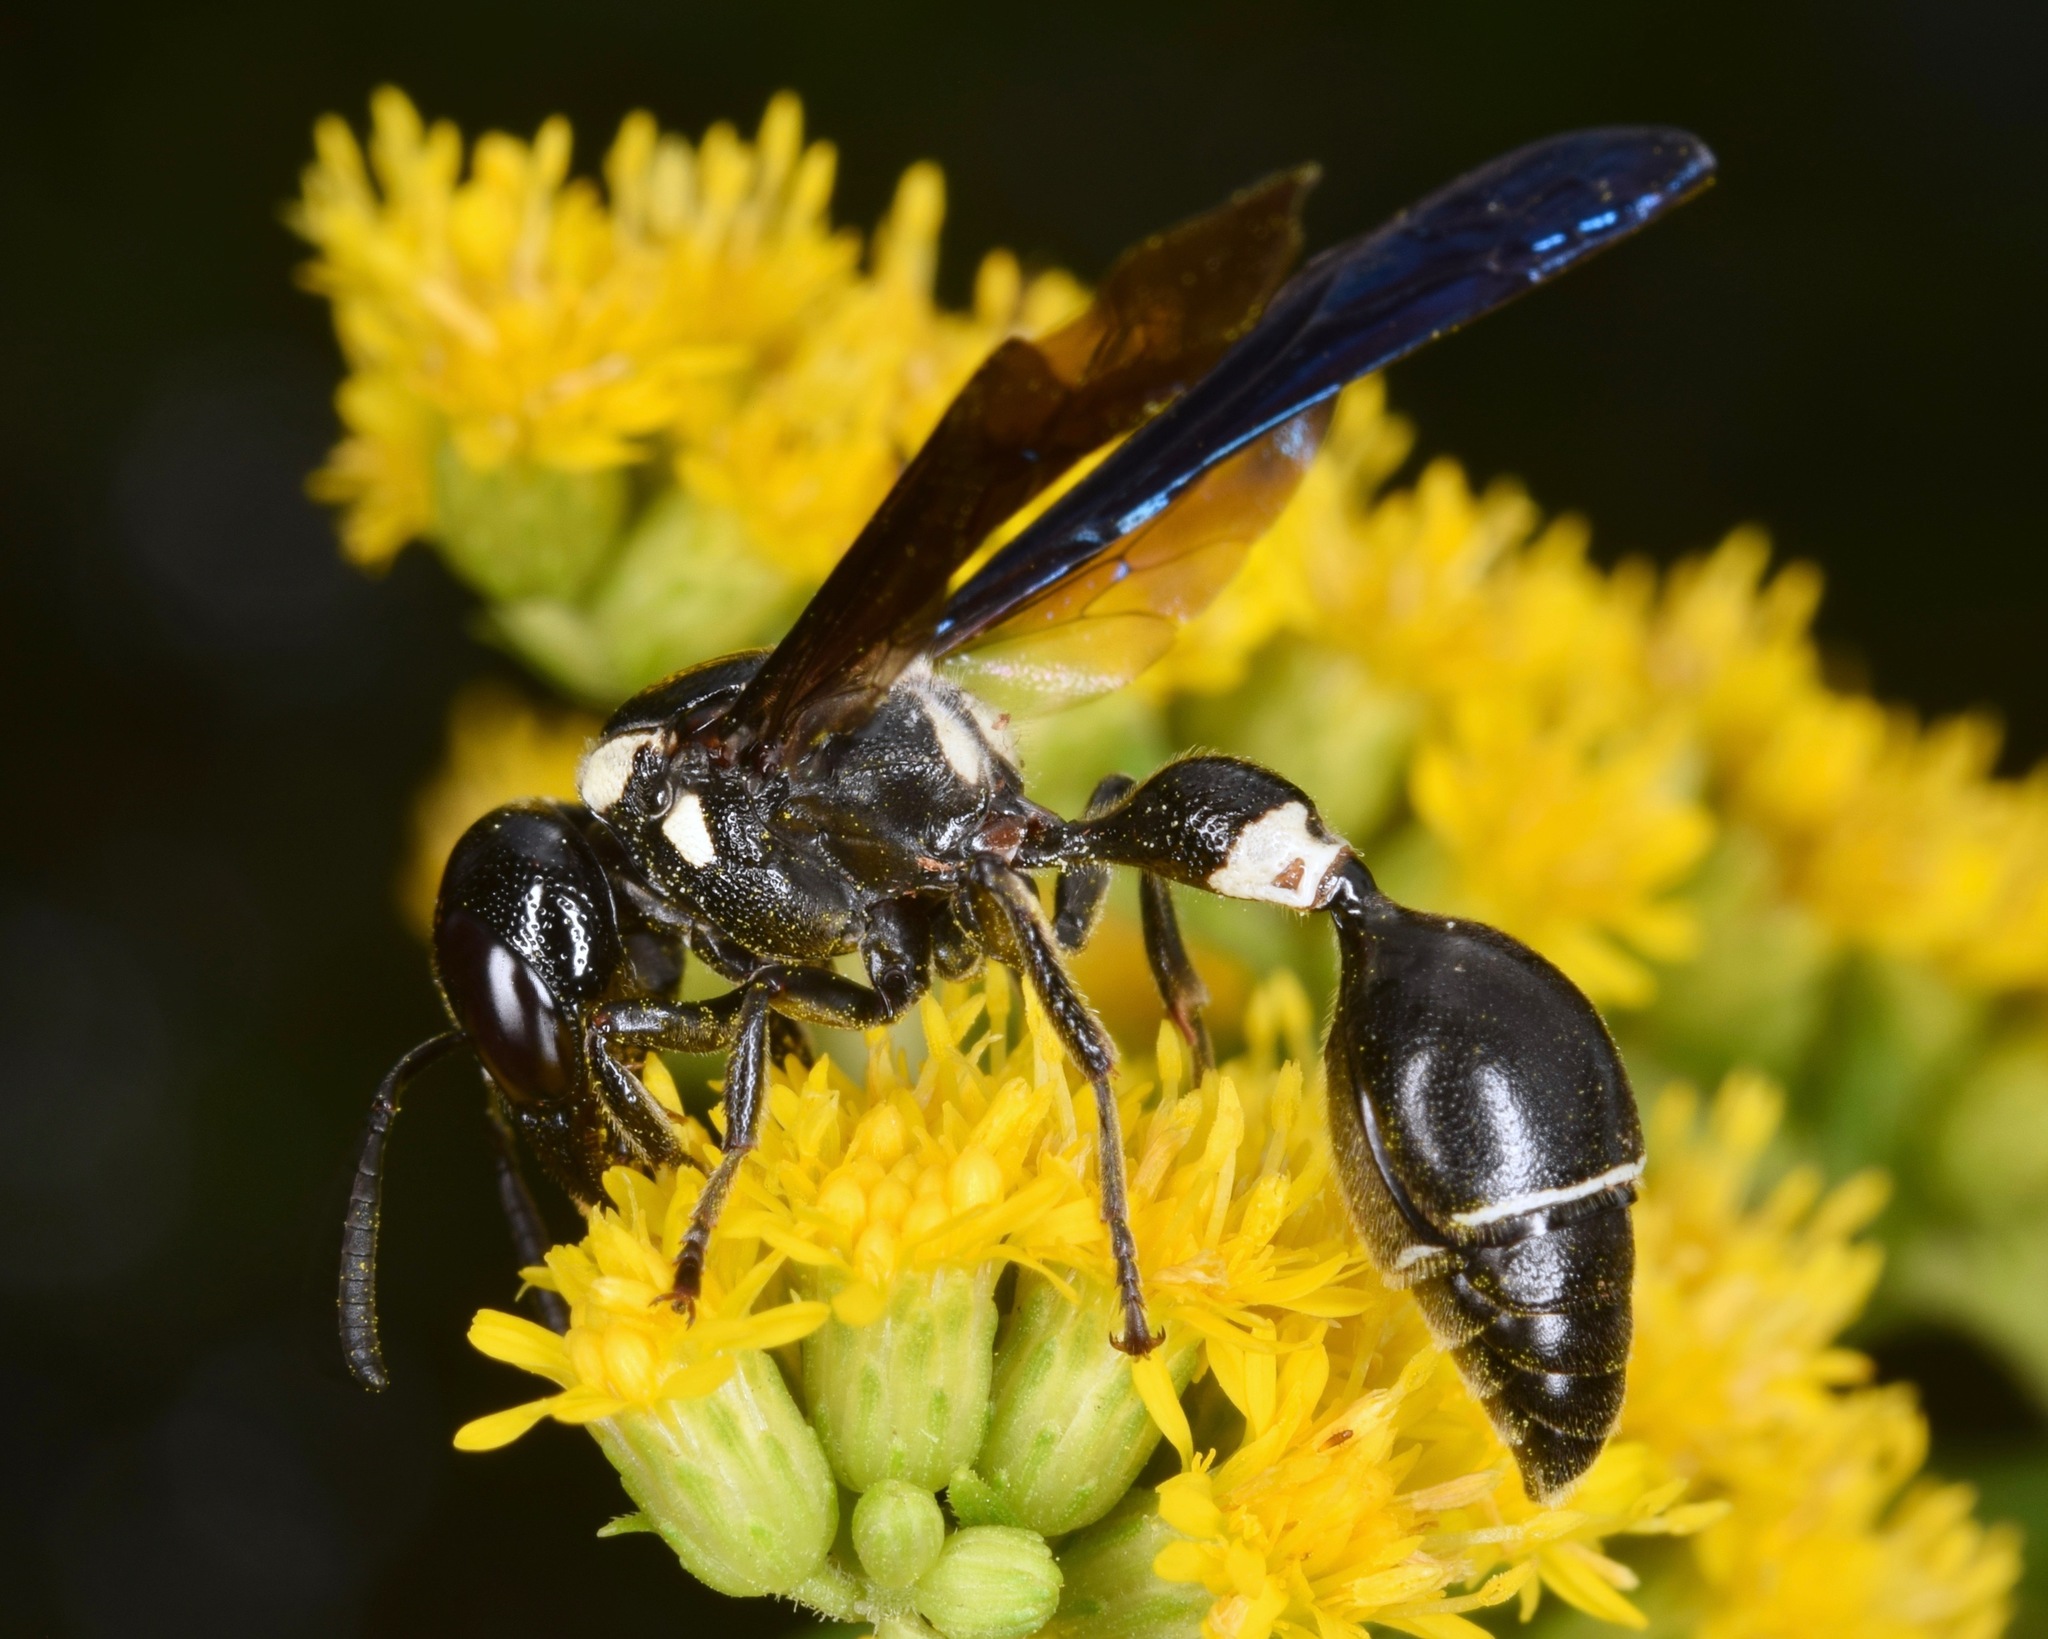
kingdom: Animalia
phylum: Arthropoda
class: Insecta
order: Hymenoptera
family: Eumenidae
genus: Zethus
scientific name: Zethus spinipes
